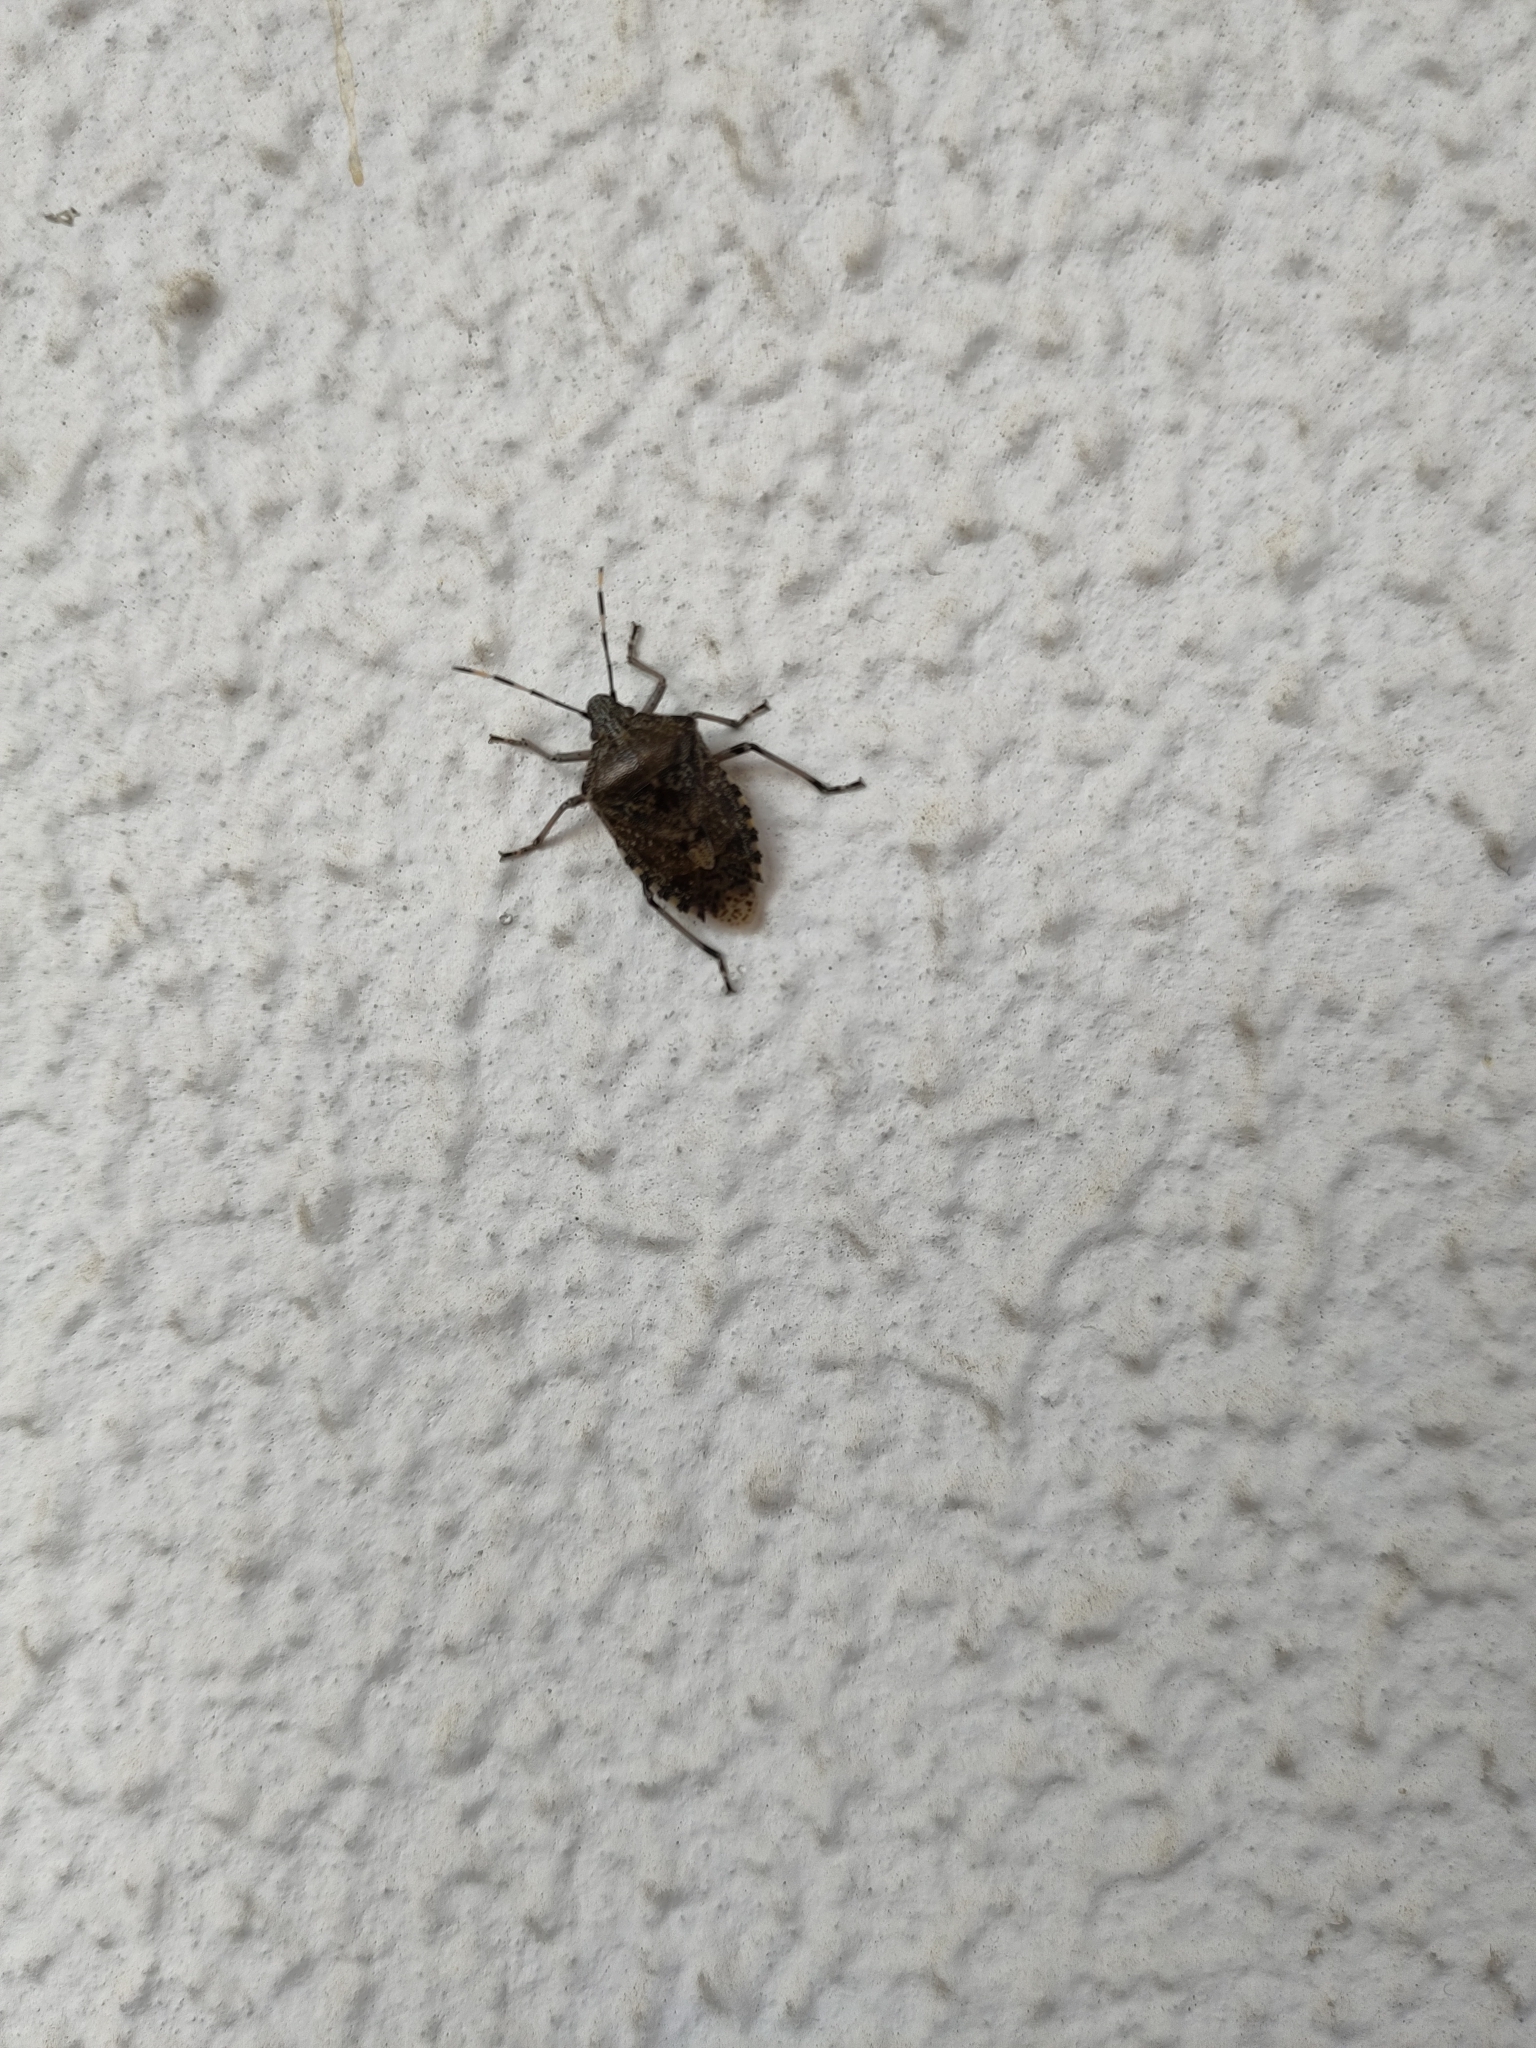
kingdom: Animalia
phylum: Arthropoda
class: Insecta
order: Hemiptera
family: Pentatomidae
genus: Rhaphigaster
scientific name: Rhaphigaster nebulosa
